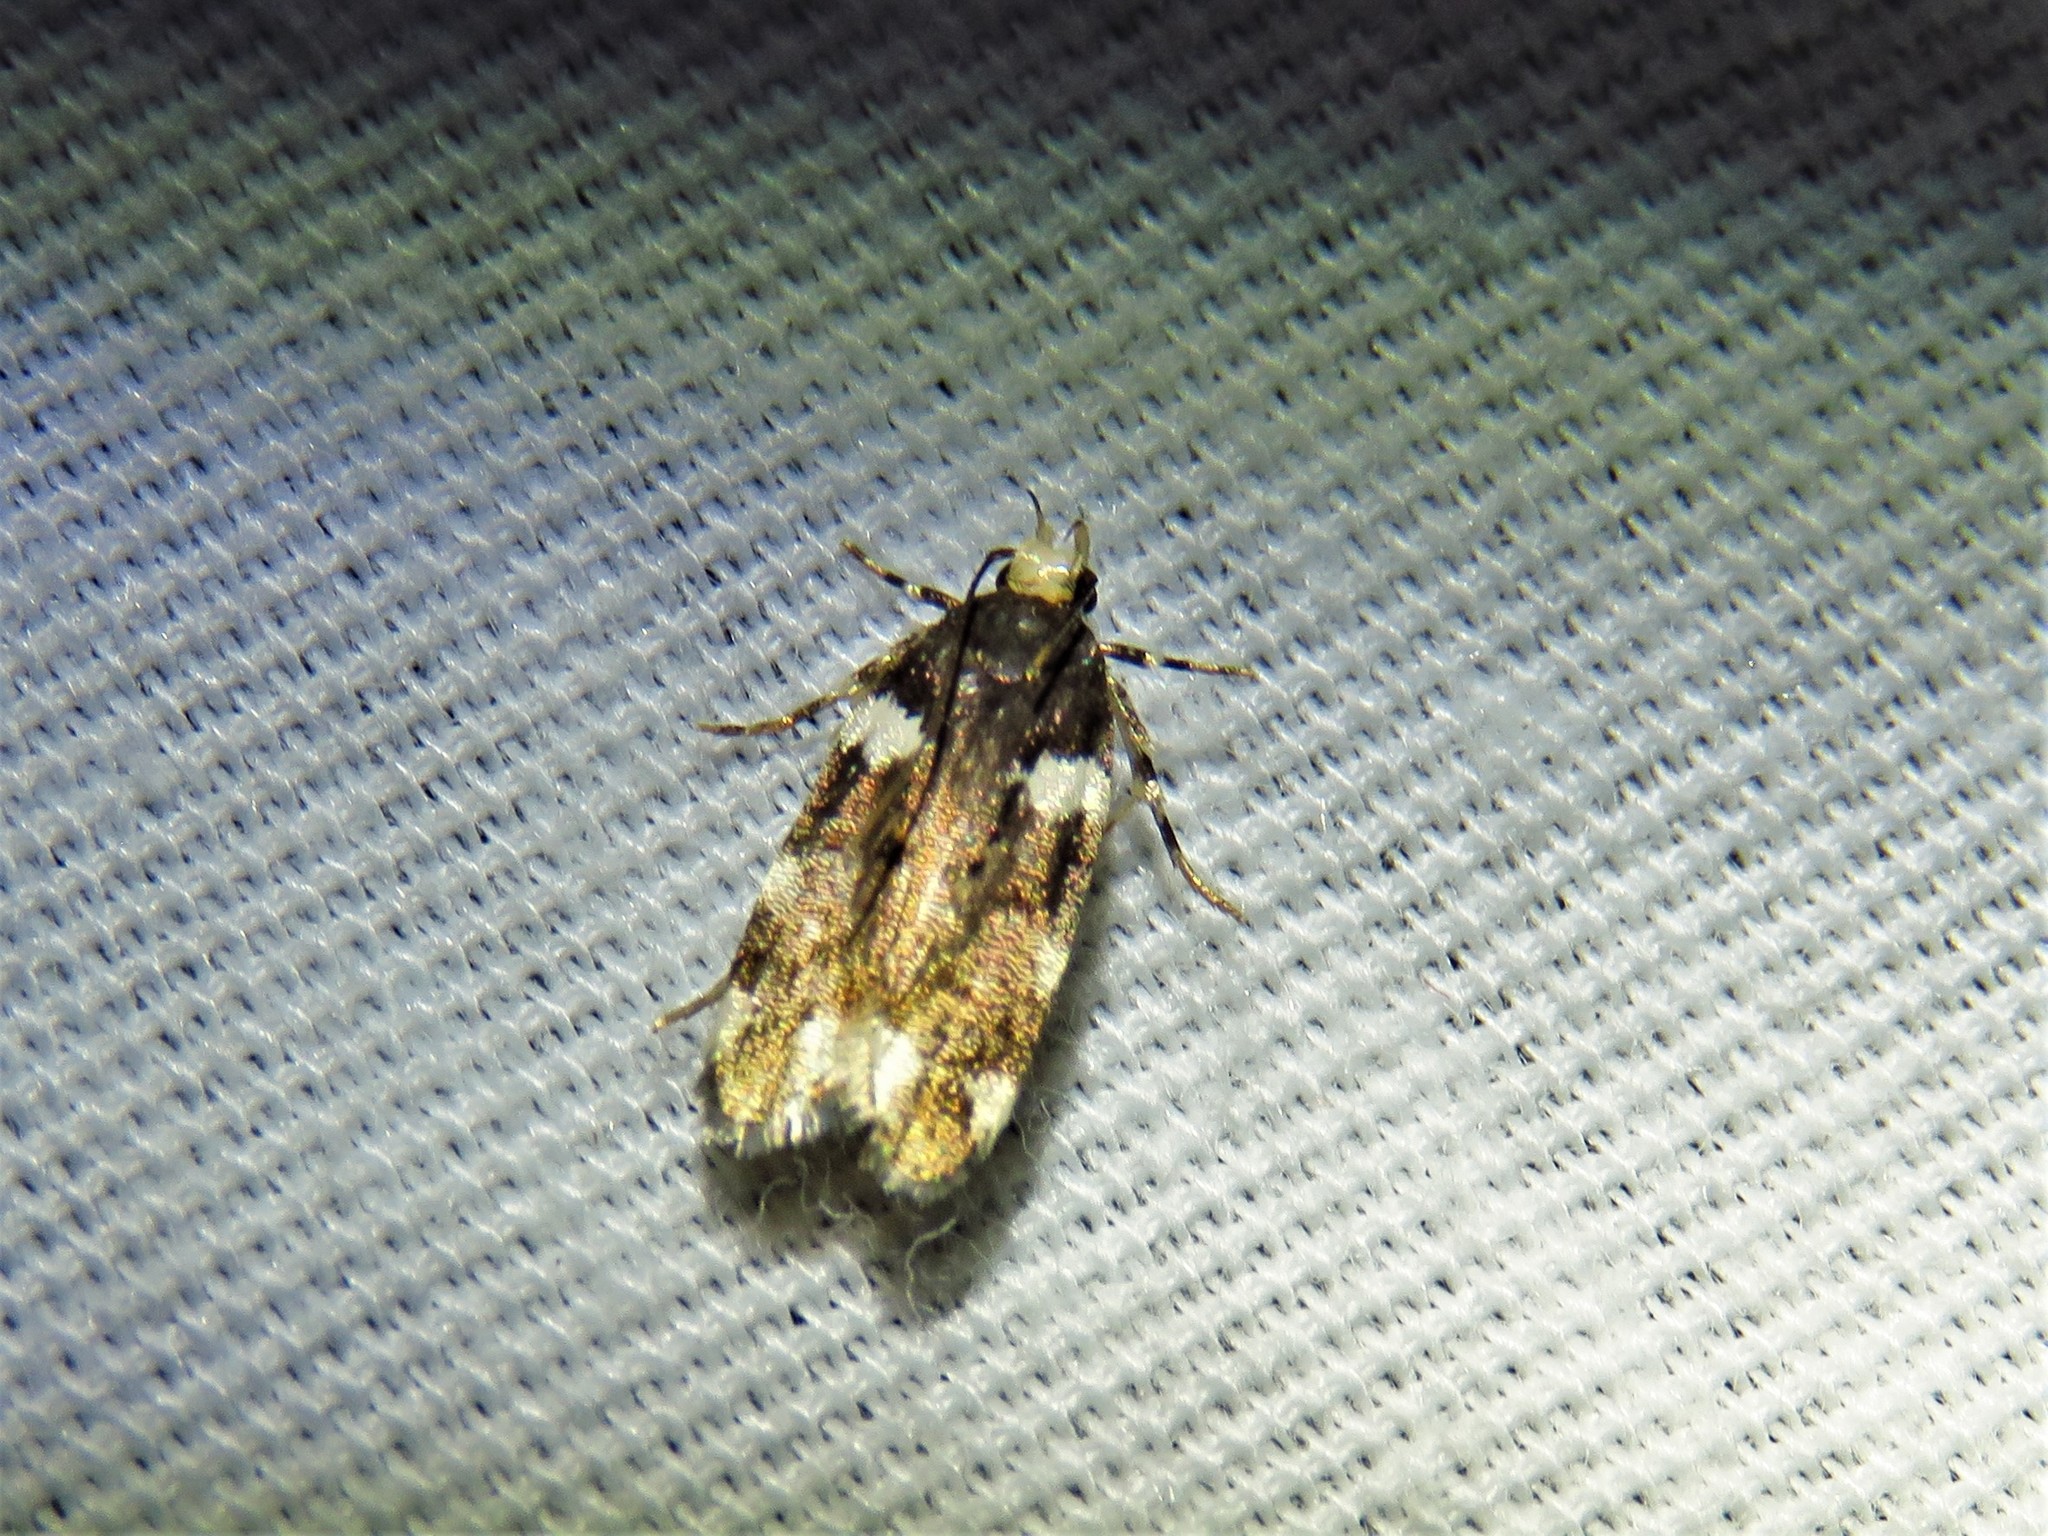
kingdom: Animalia
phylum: Arthropoda
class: Insecta
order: Lepidoptera
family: Gelechiidae
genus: Fascista
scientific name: Fascista cercerisella
